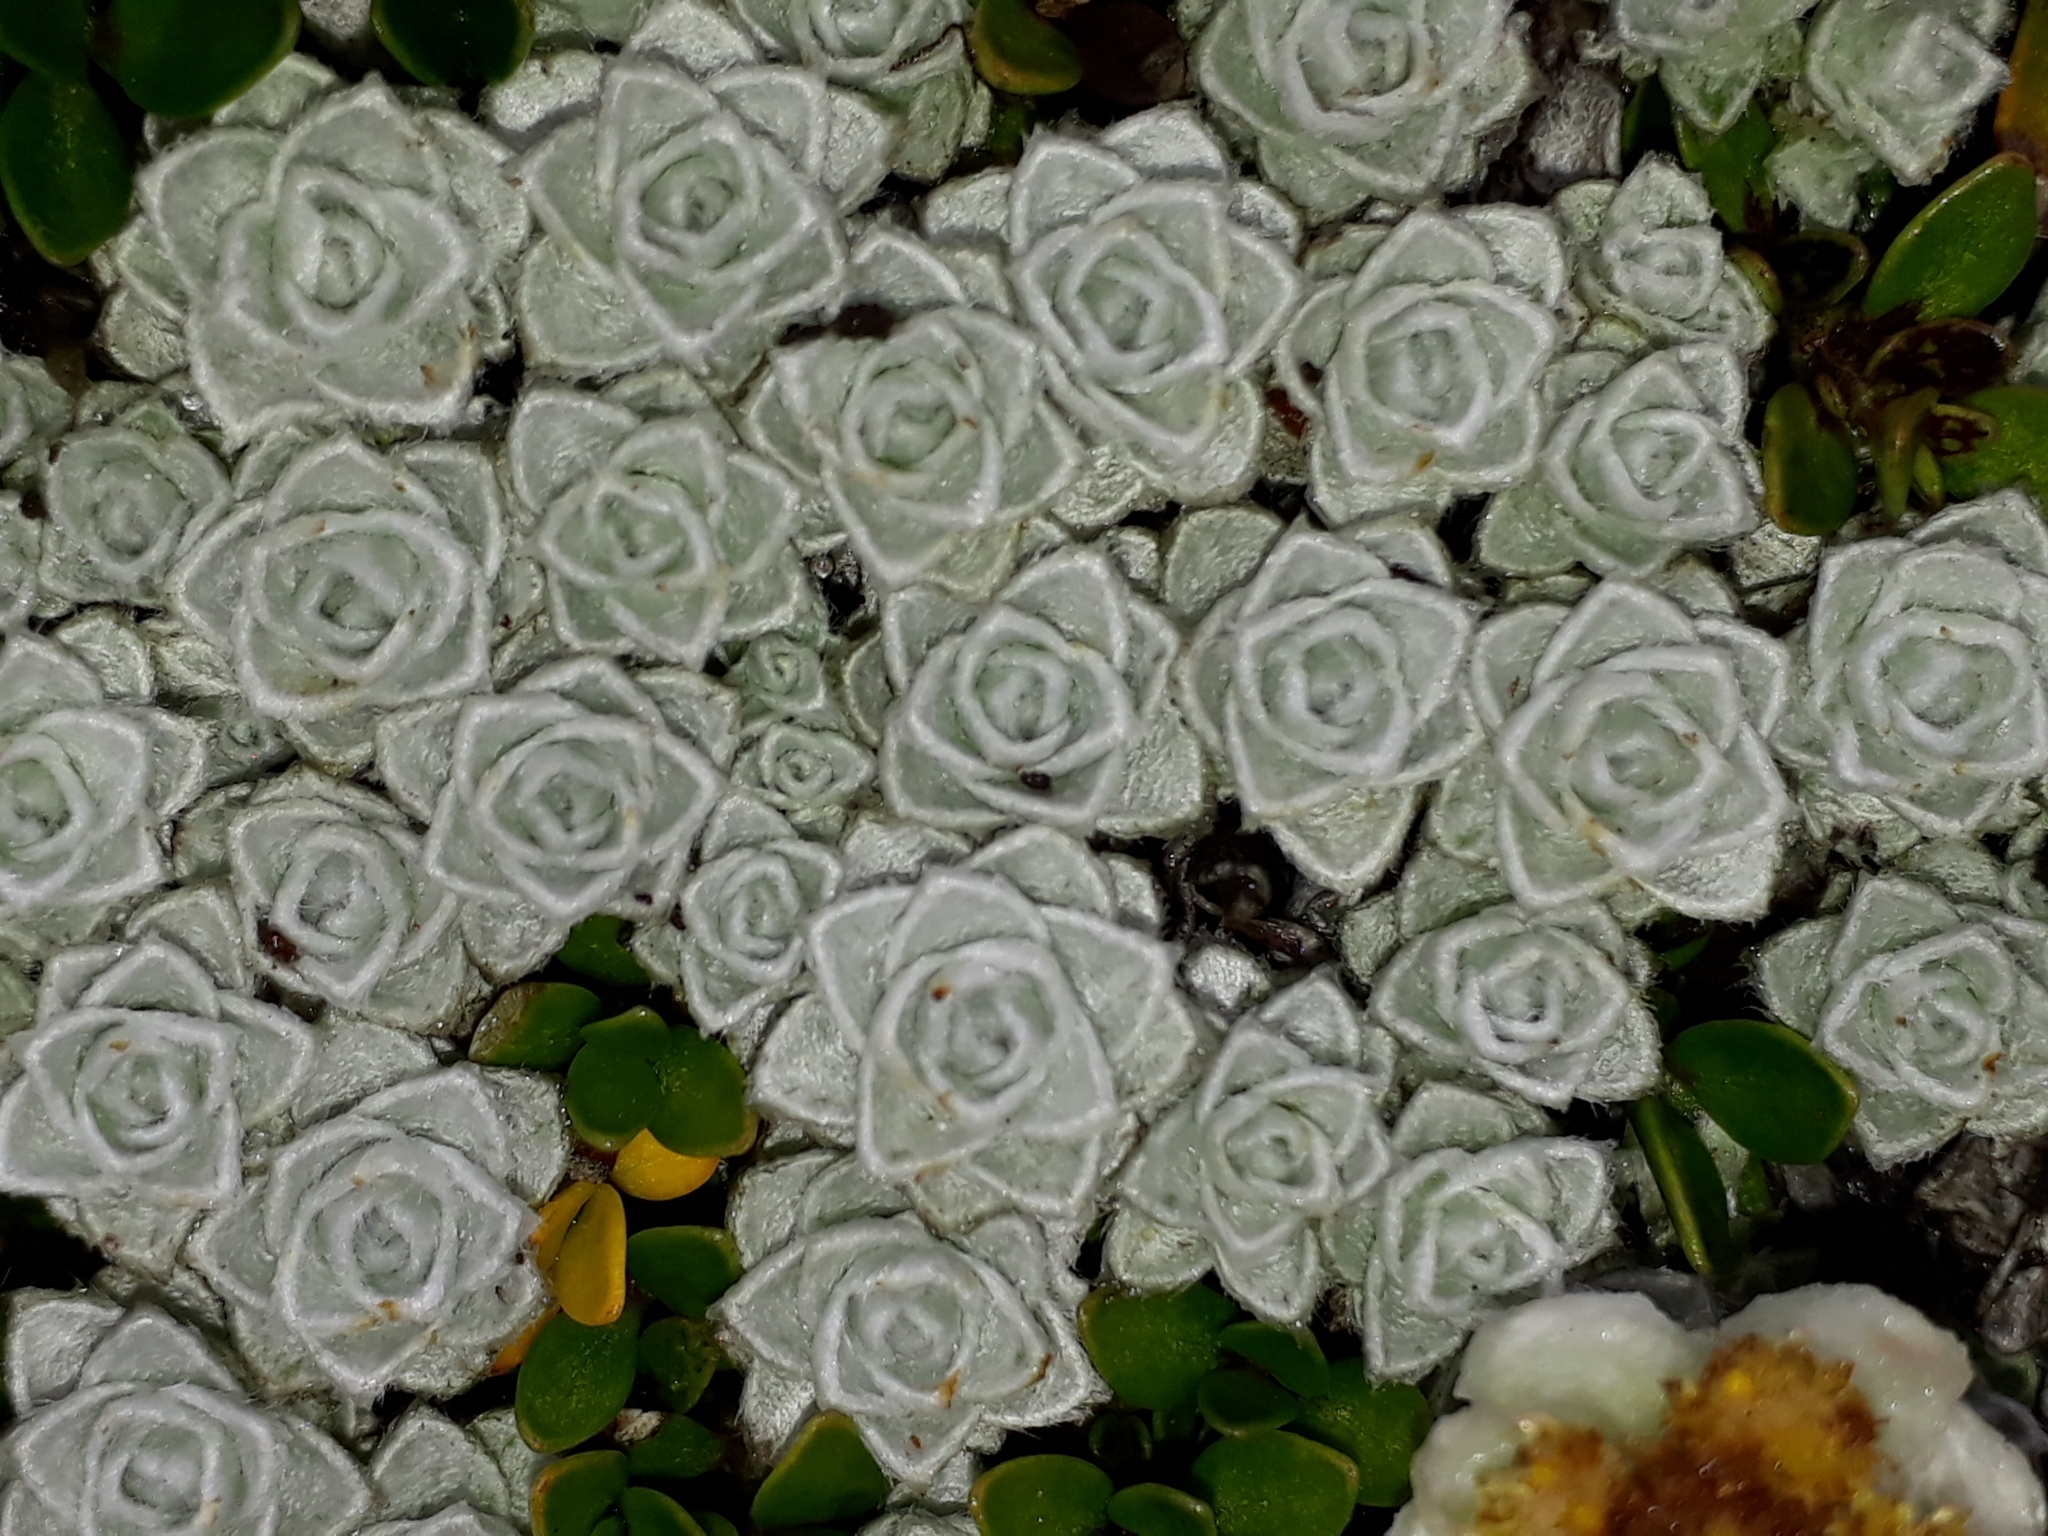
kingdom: Plantae
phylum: Tracheophyta
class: Magnoliopsida
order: Asterales
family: Asteraceae
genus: Leucogenes
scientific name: Leucogenes grandiceps
